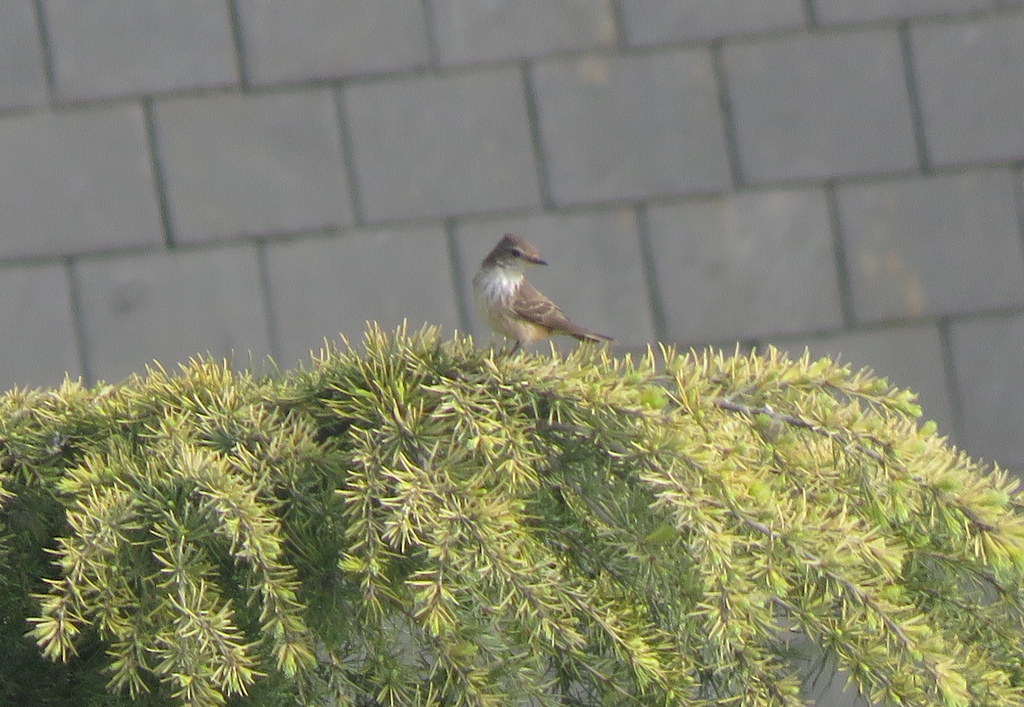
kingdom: Animalia
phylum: Chordata
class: Aves
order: Passeriformes
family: Tyrannidae
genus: Pyrocephalus
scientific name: Pyrocephalus rubinus
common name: Vermilion flycatcher
